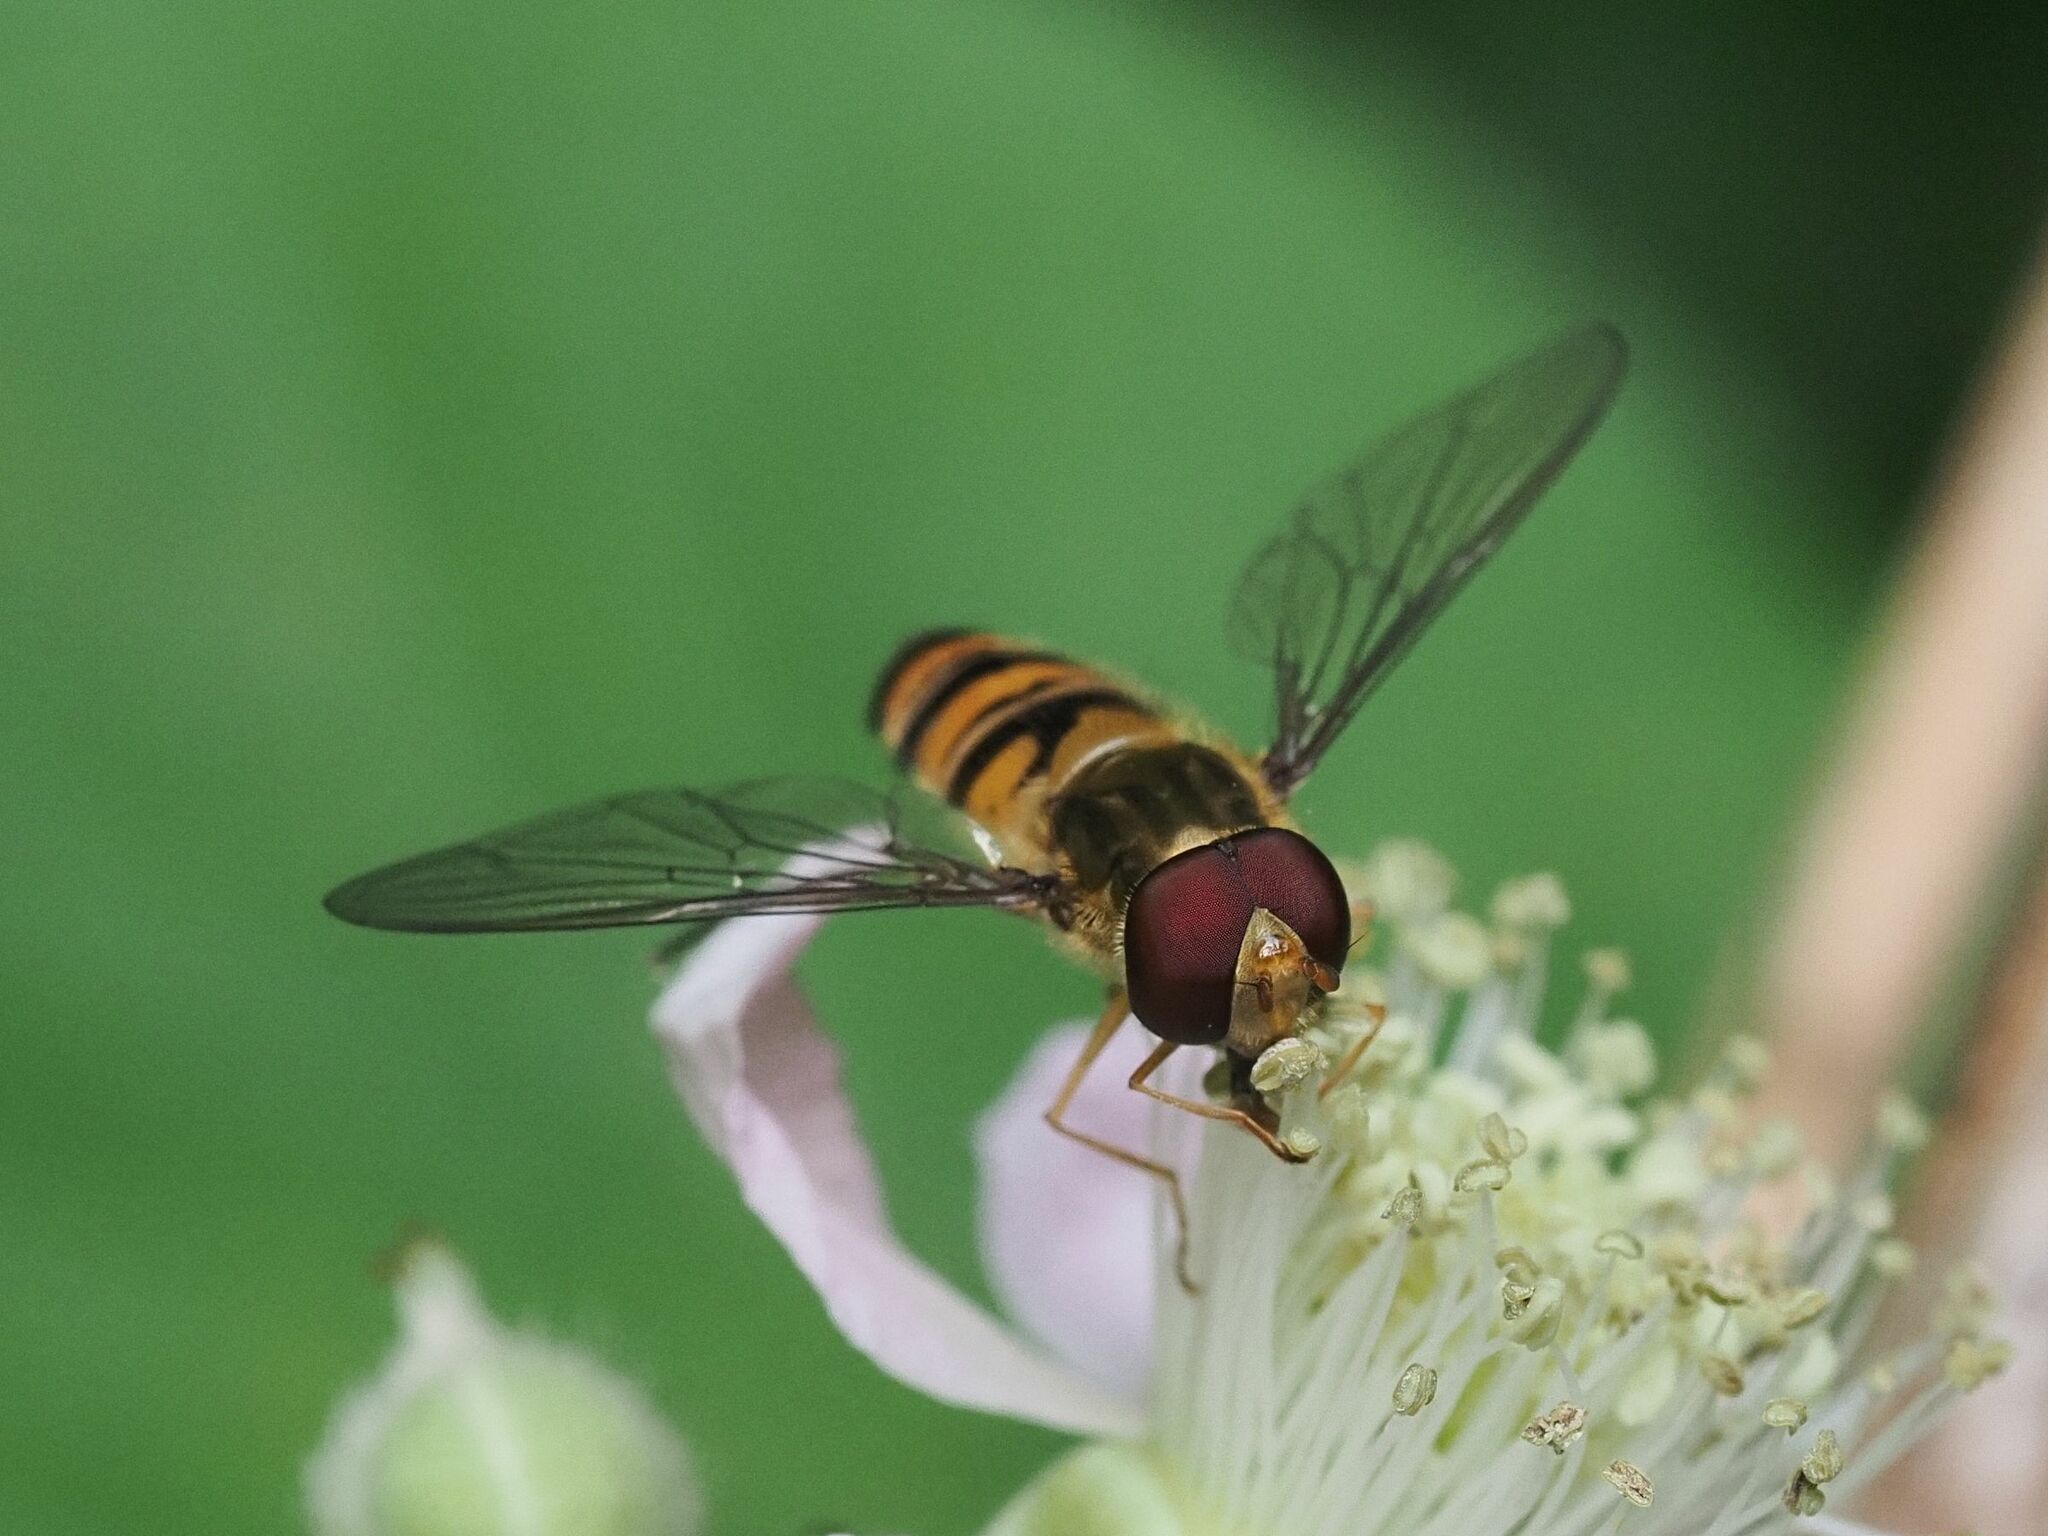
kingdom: Animalia
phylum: Arthropoda
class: Insecta
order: Diptera
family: Syrphidae
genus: Episyrphus
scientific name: Episyrphus balteatus
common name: Marmalade hoverfly
